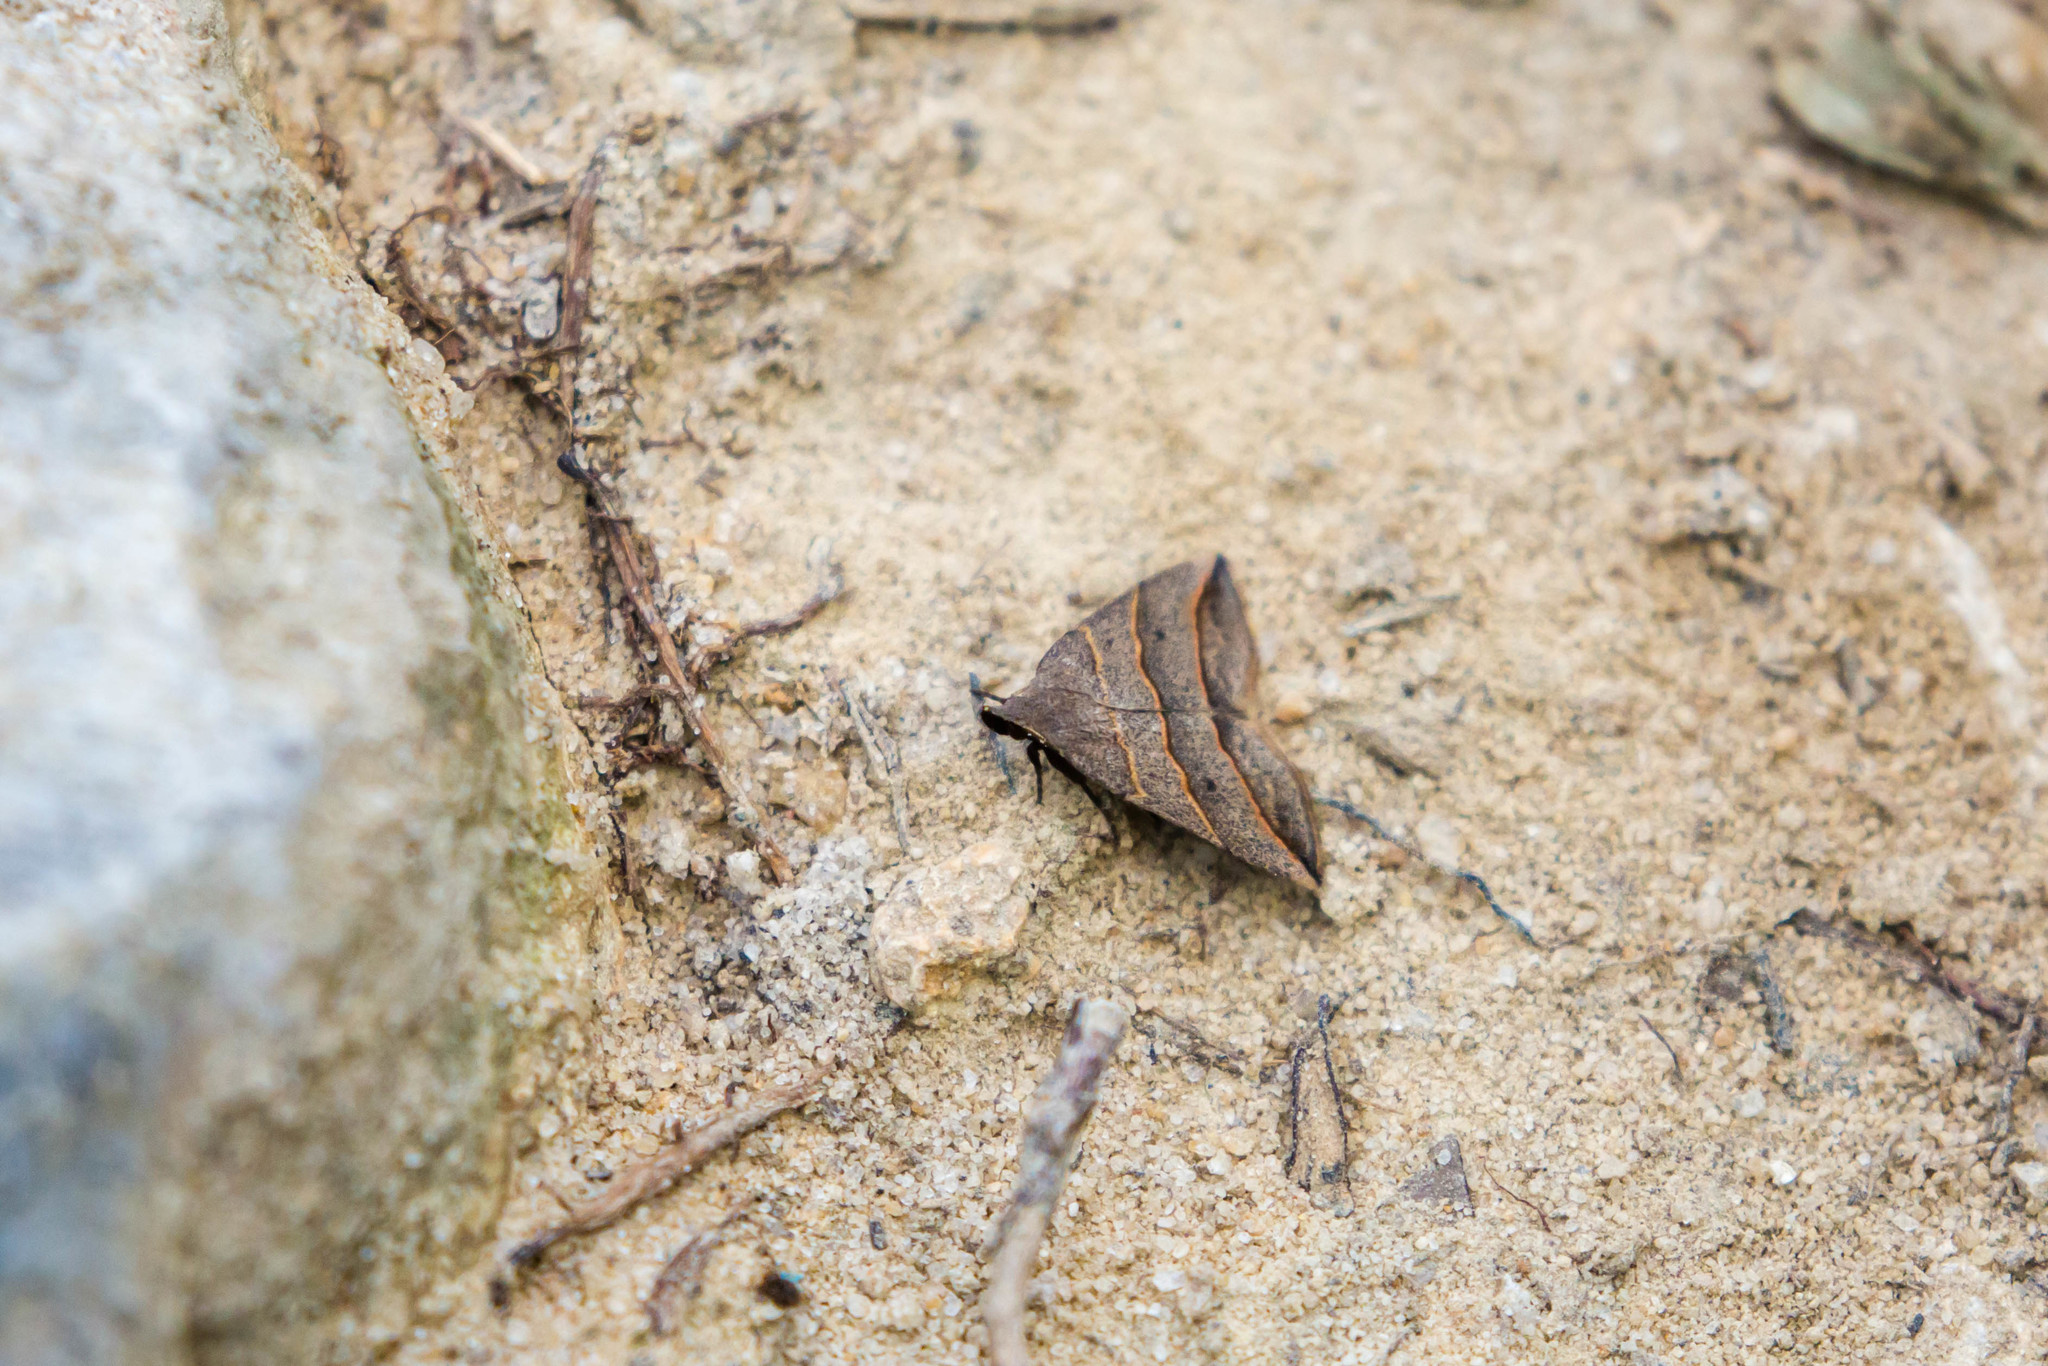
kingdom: Animalia
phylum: Arthropoda
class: Insecta
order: Lepidoptera
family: Erebidae
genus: Colobochyla
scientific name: Colobochyla interpuncta
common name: Yellow-lined owlet
